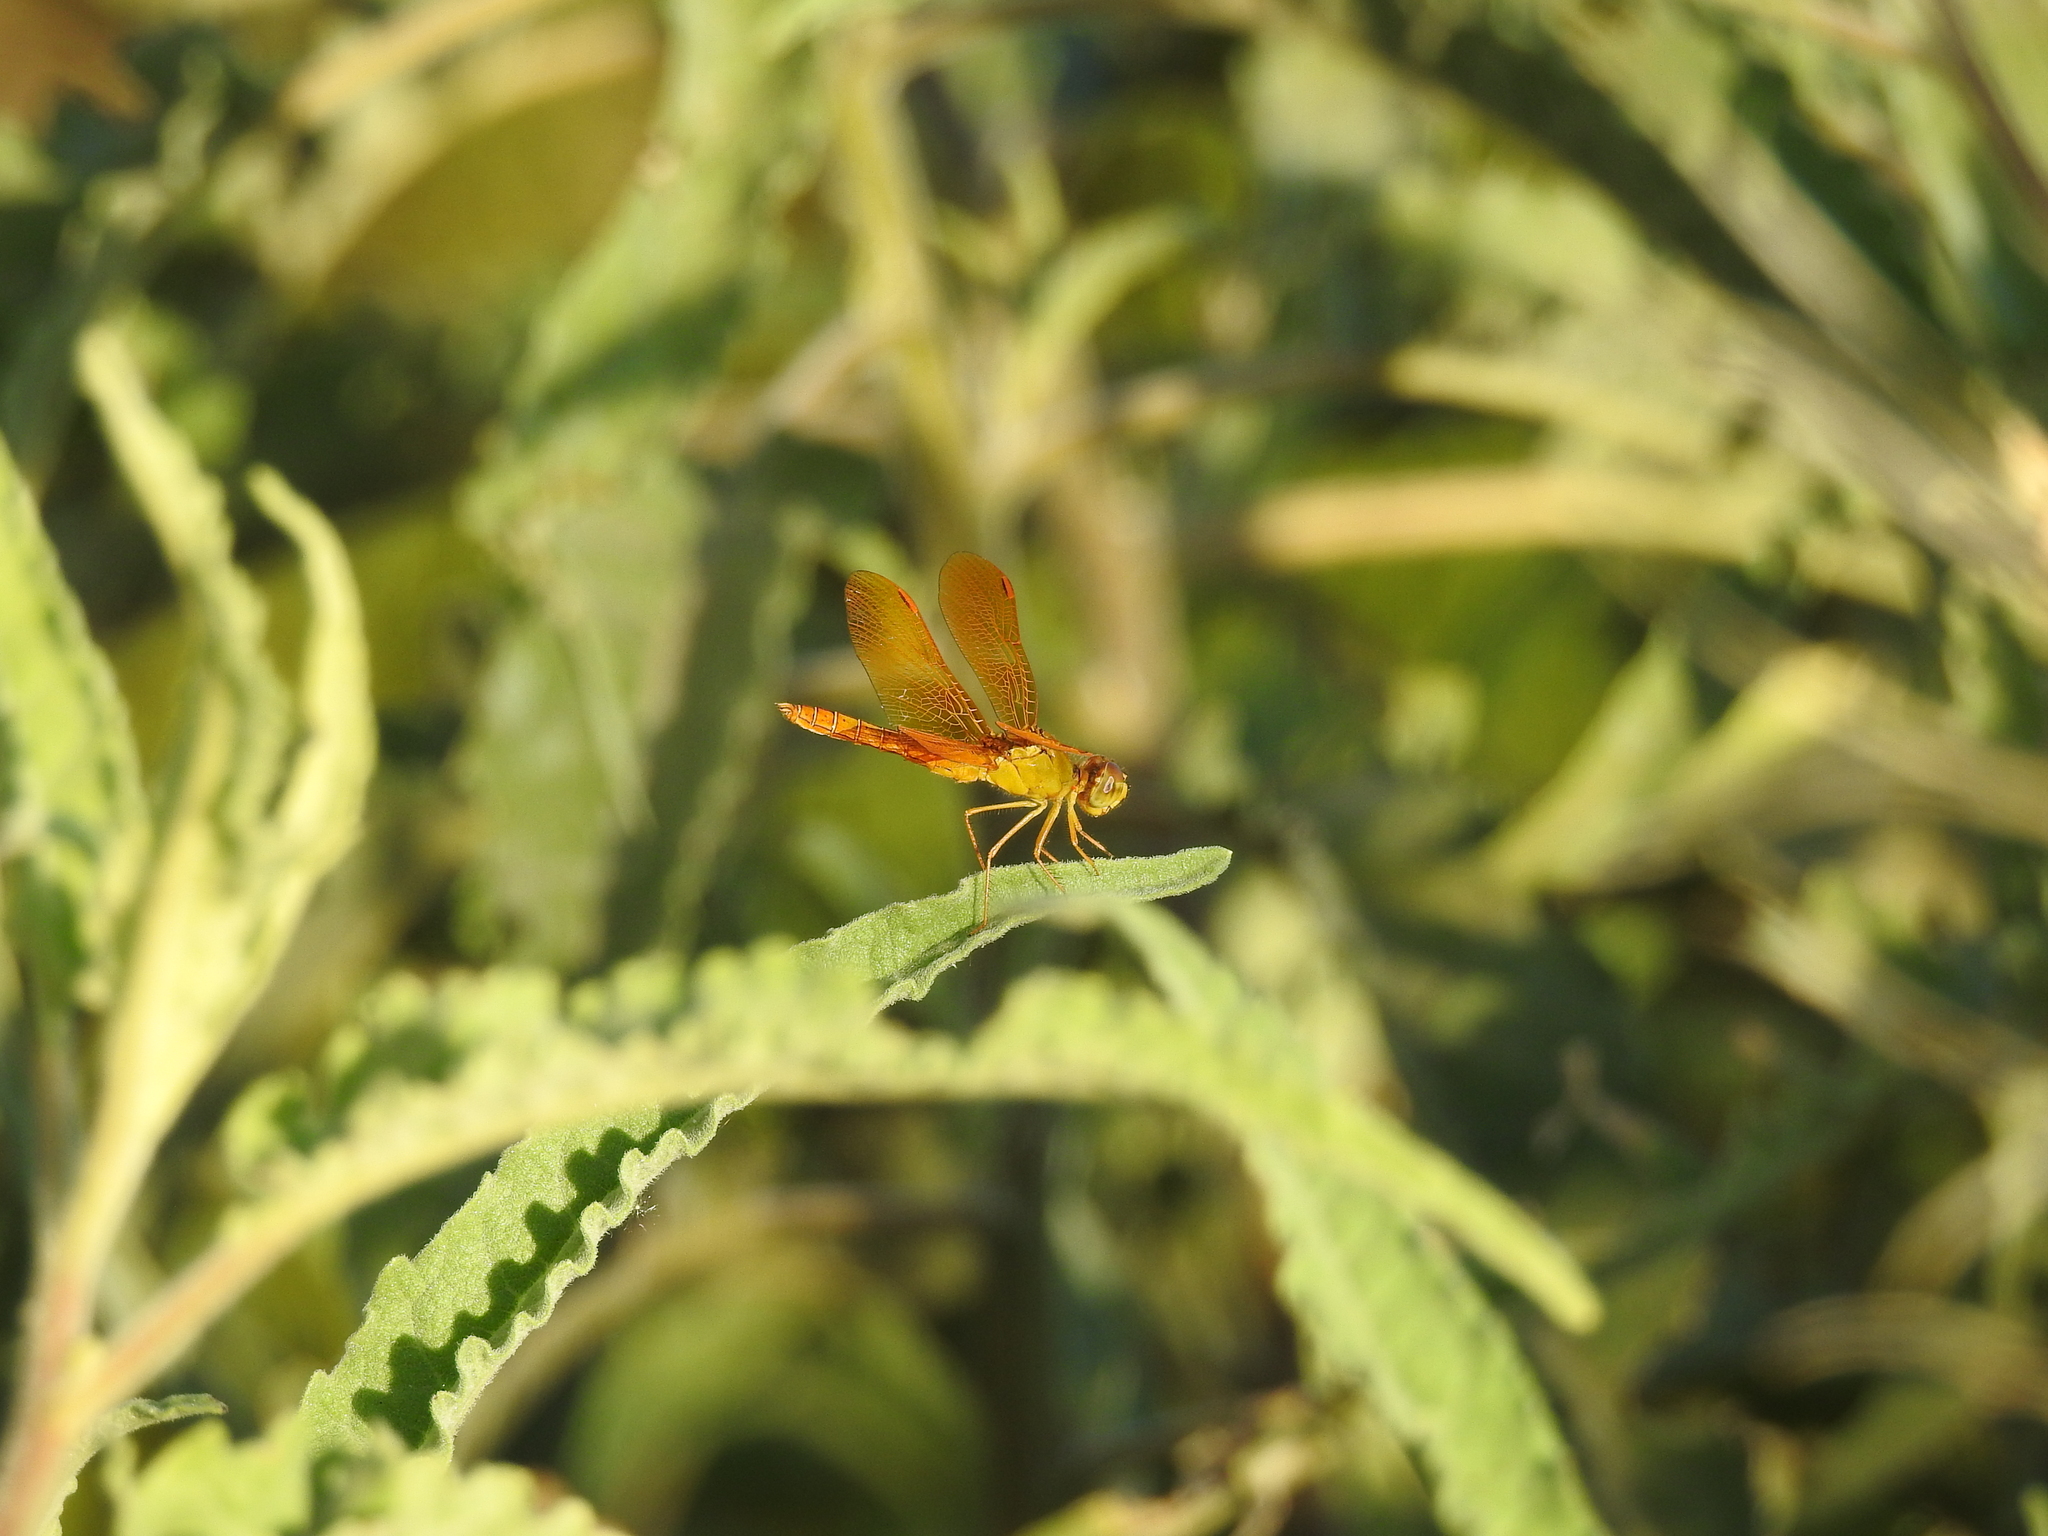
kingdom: Animalia
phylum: Arthropoda
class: Insecta
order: Odonata
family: Libellulidae
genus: Perithemis
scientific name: Perithemis intensa
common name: Mexican amberwing
